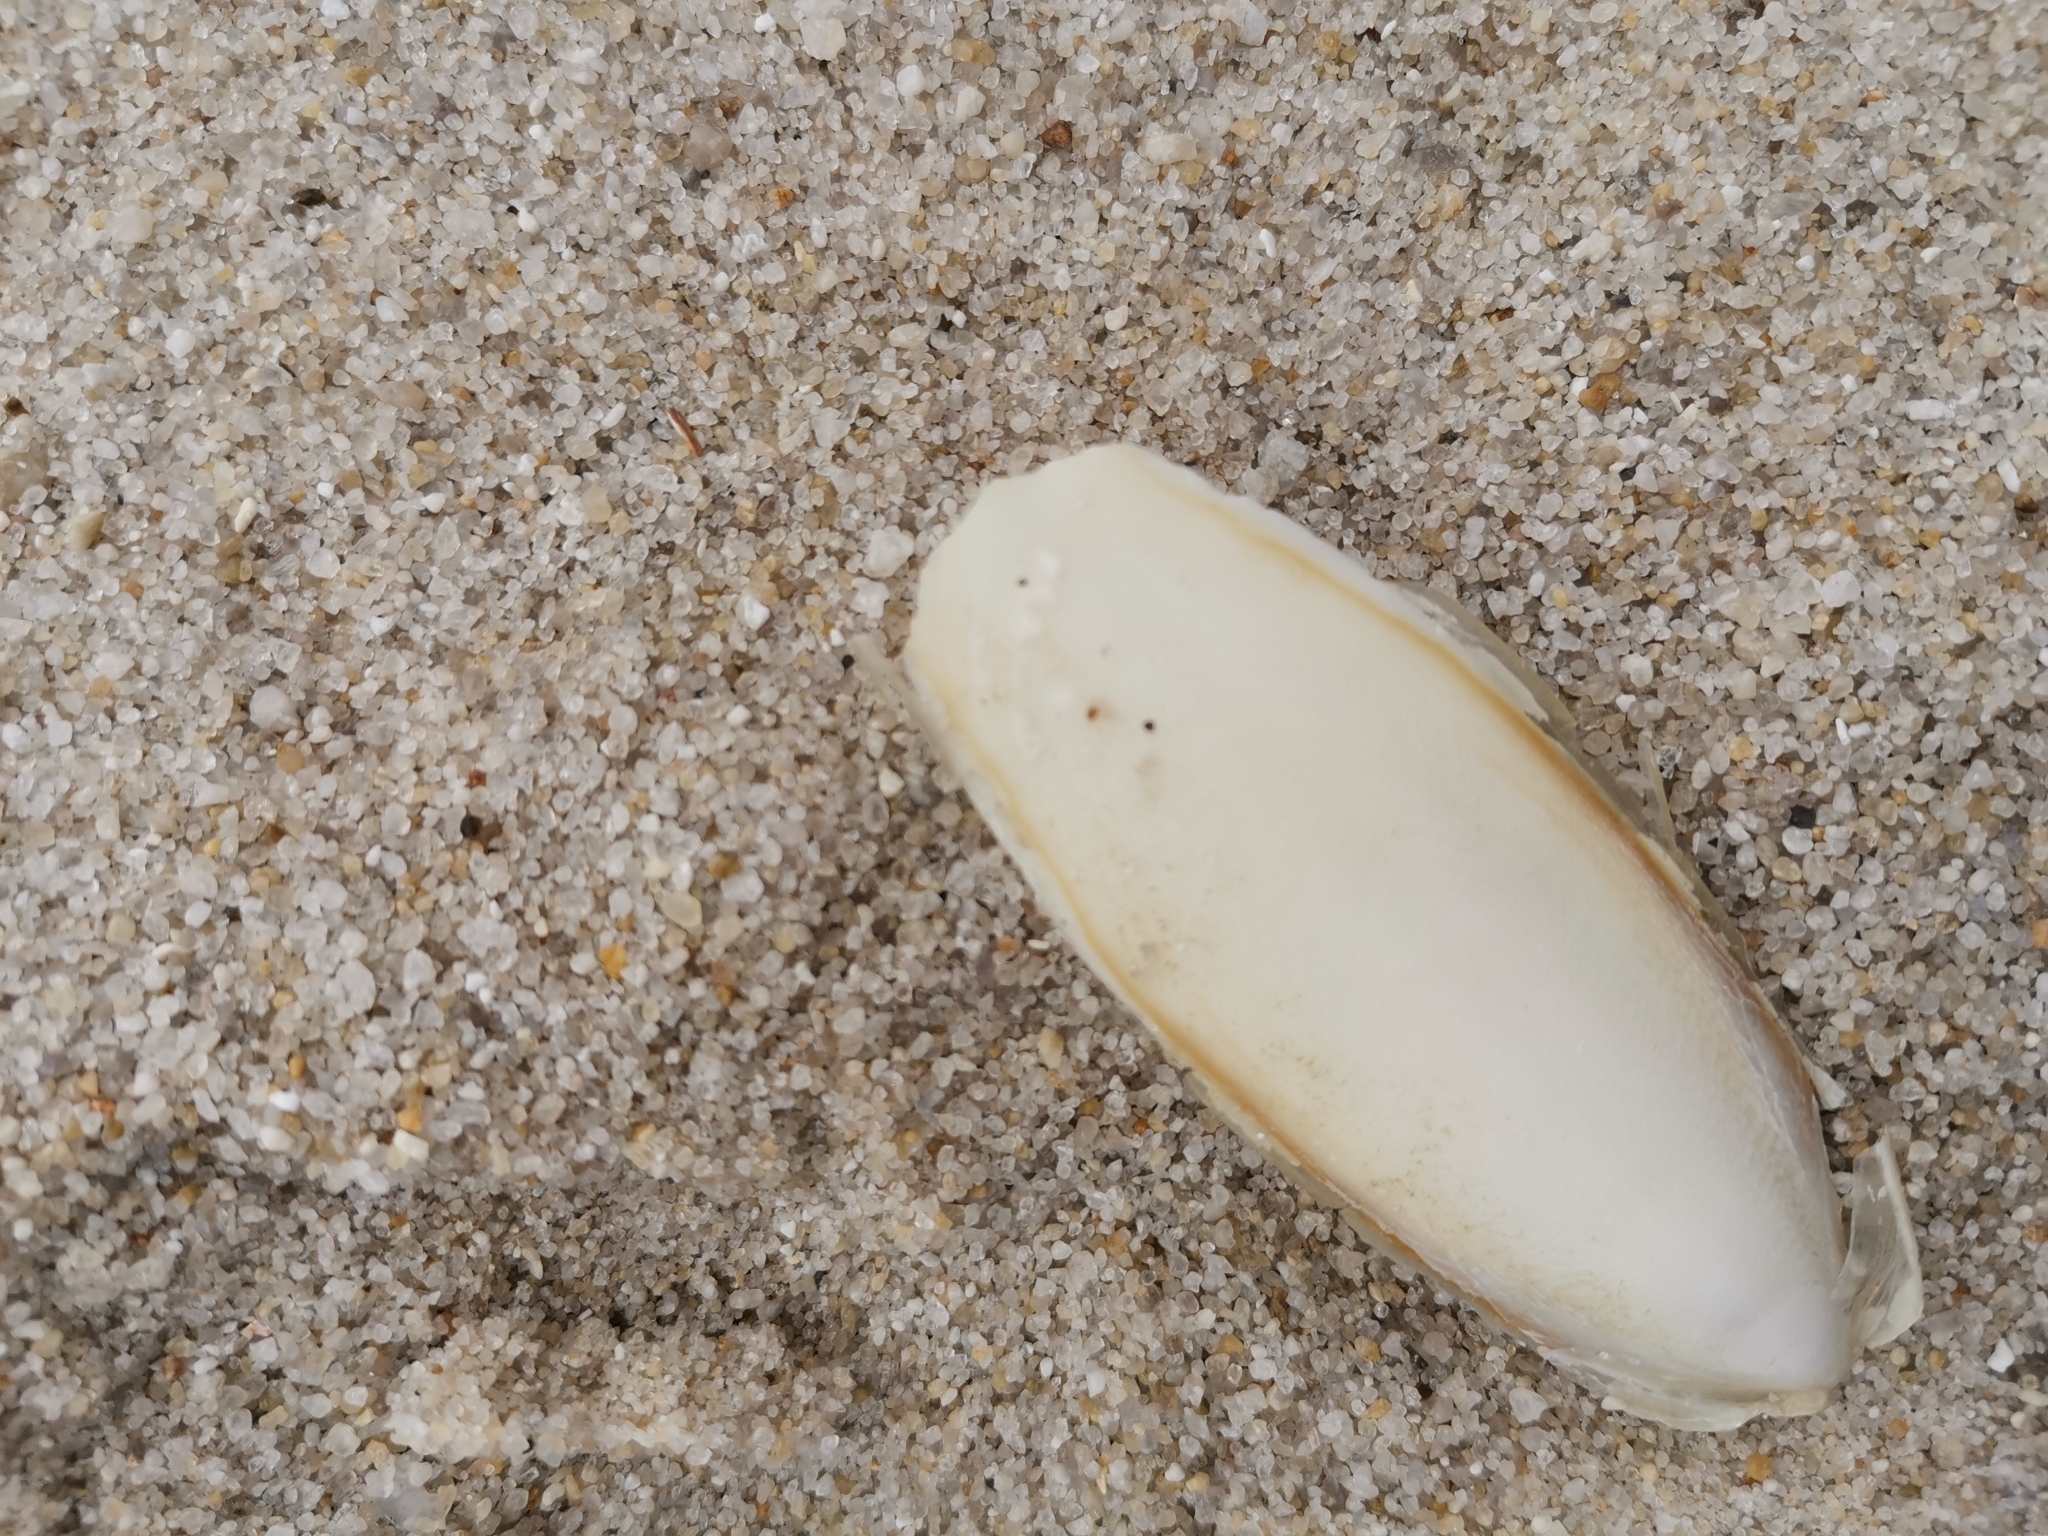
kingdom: Animalia
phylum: Mollusca
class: Cephalopoda
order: Sepiida
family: Sepiidae
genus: Sepia
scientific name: Sepia officinalis
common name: Common cuttlefish
